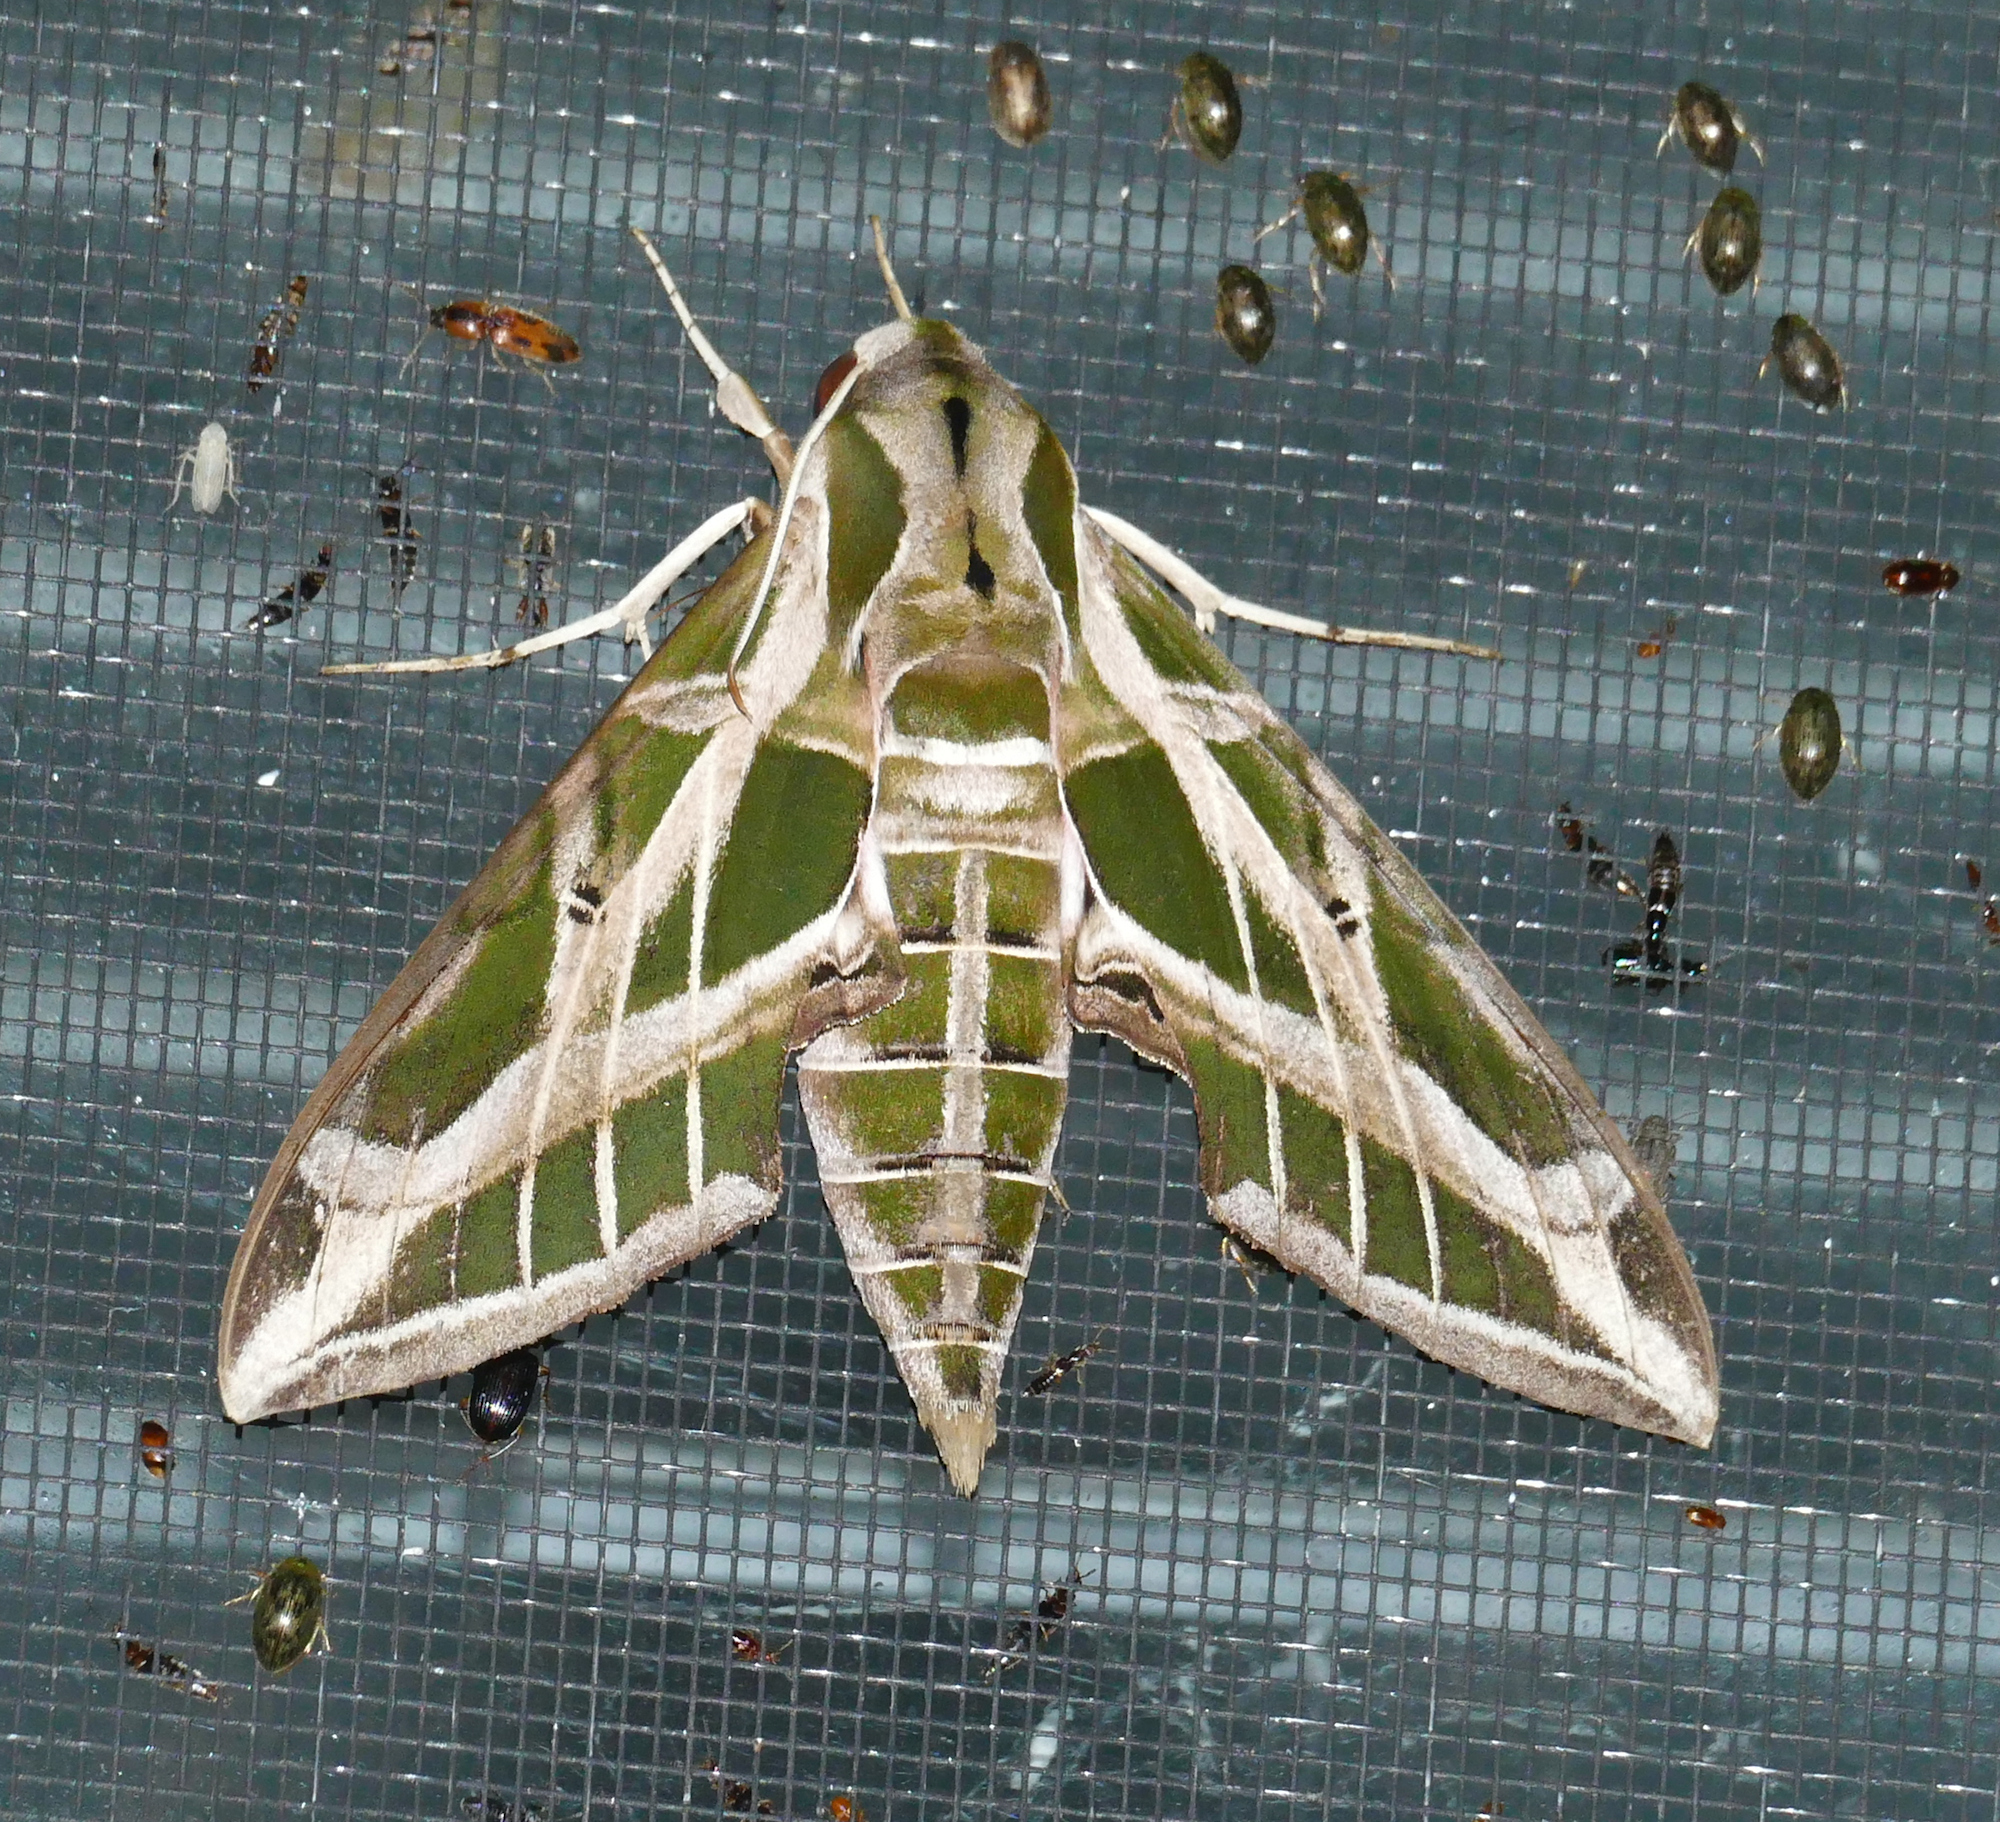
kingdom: Animalia
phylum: Arthropoda
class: Insecta
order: Lepidoptera
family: Sphingidae
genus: Eumorpha
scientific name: Eumorpha vitis
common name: Vine sphinx
